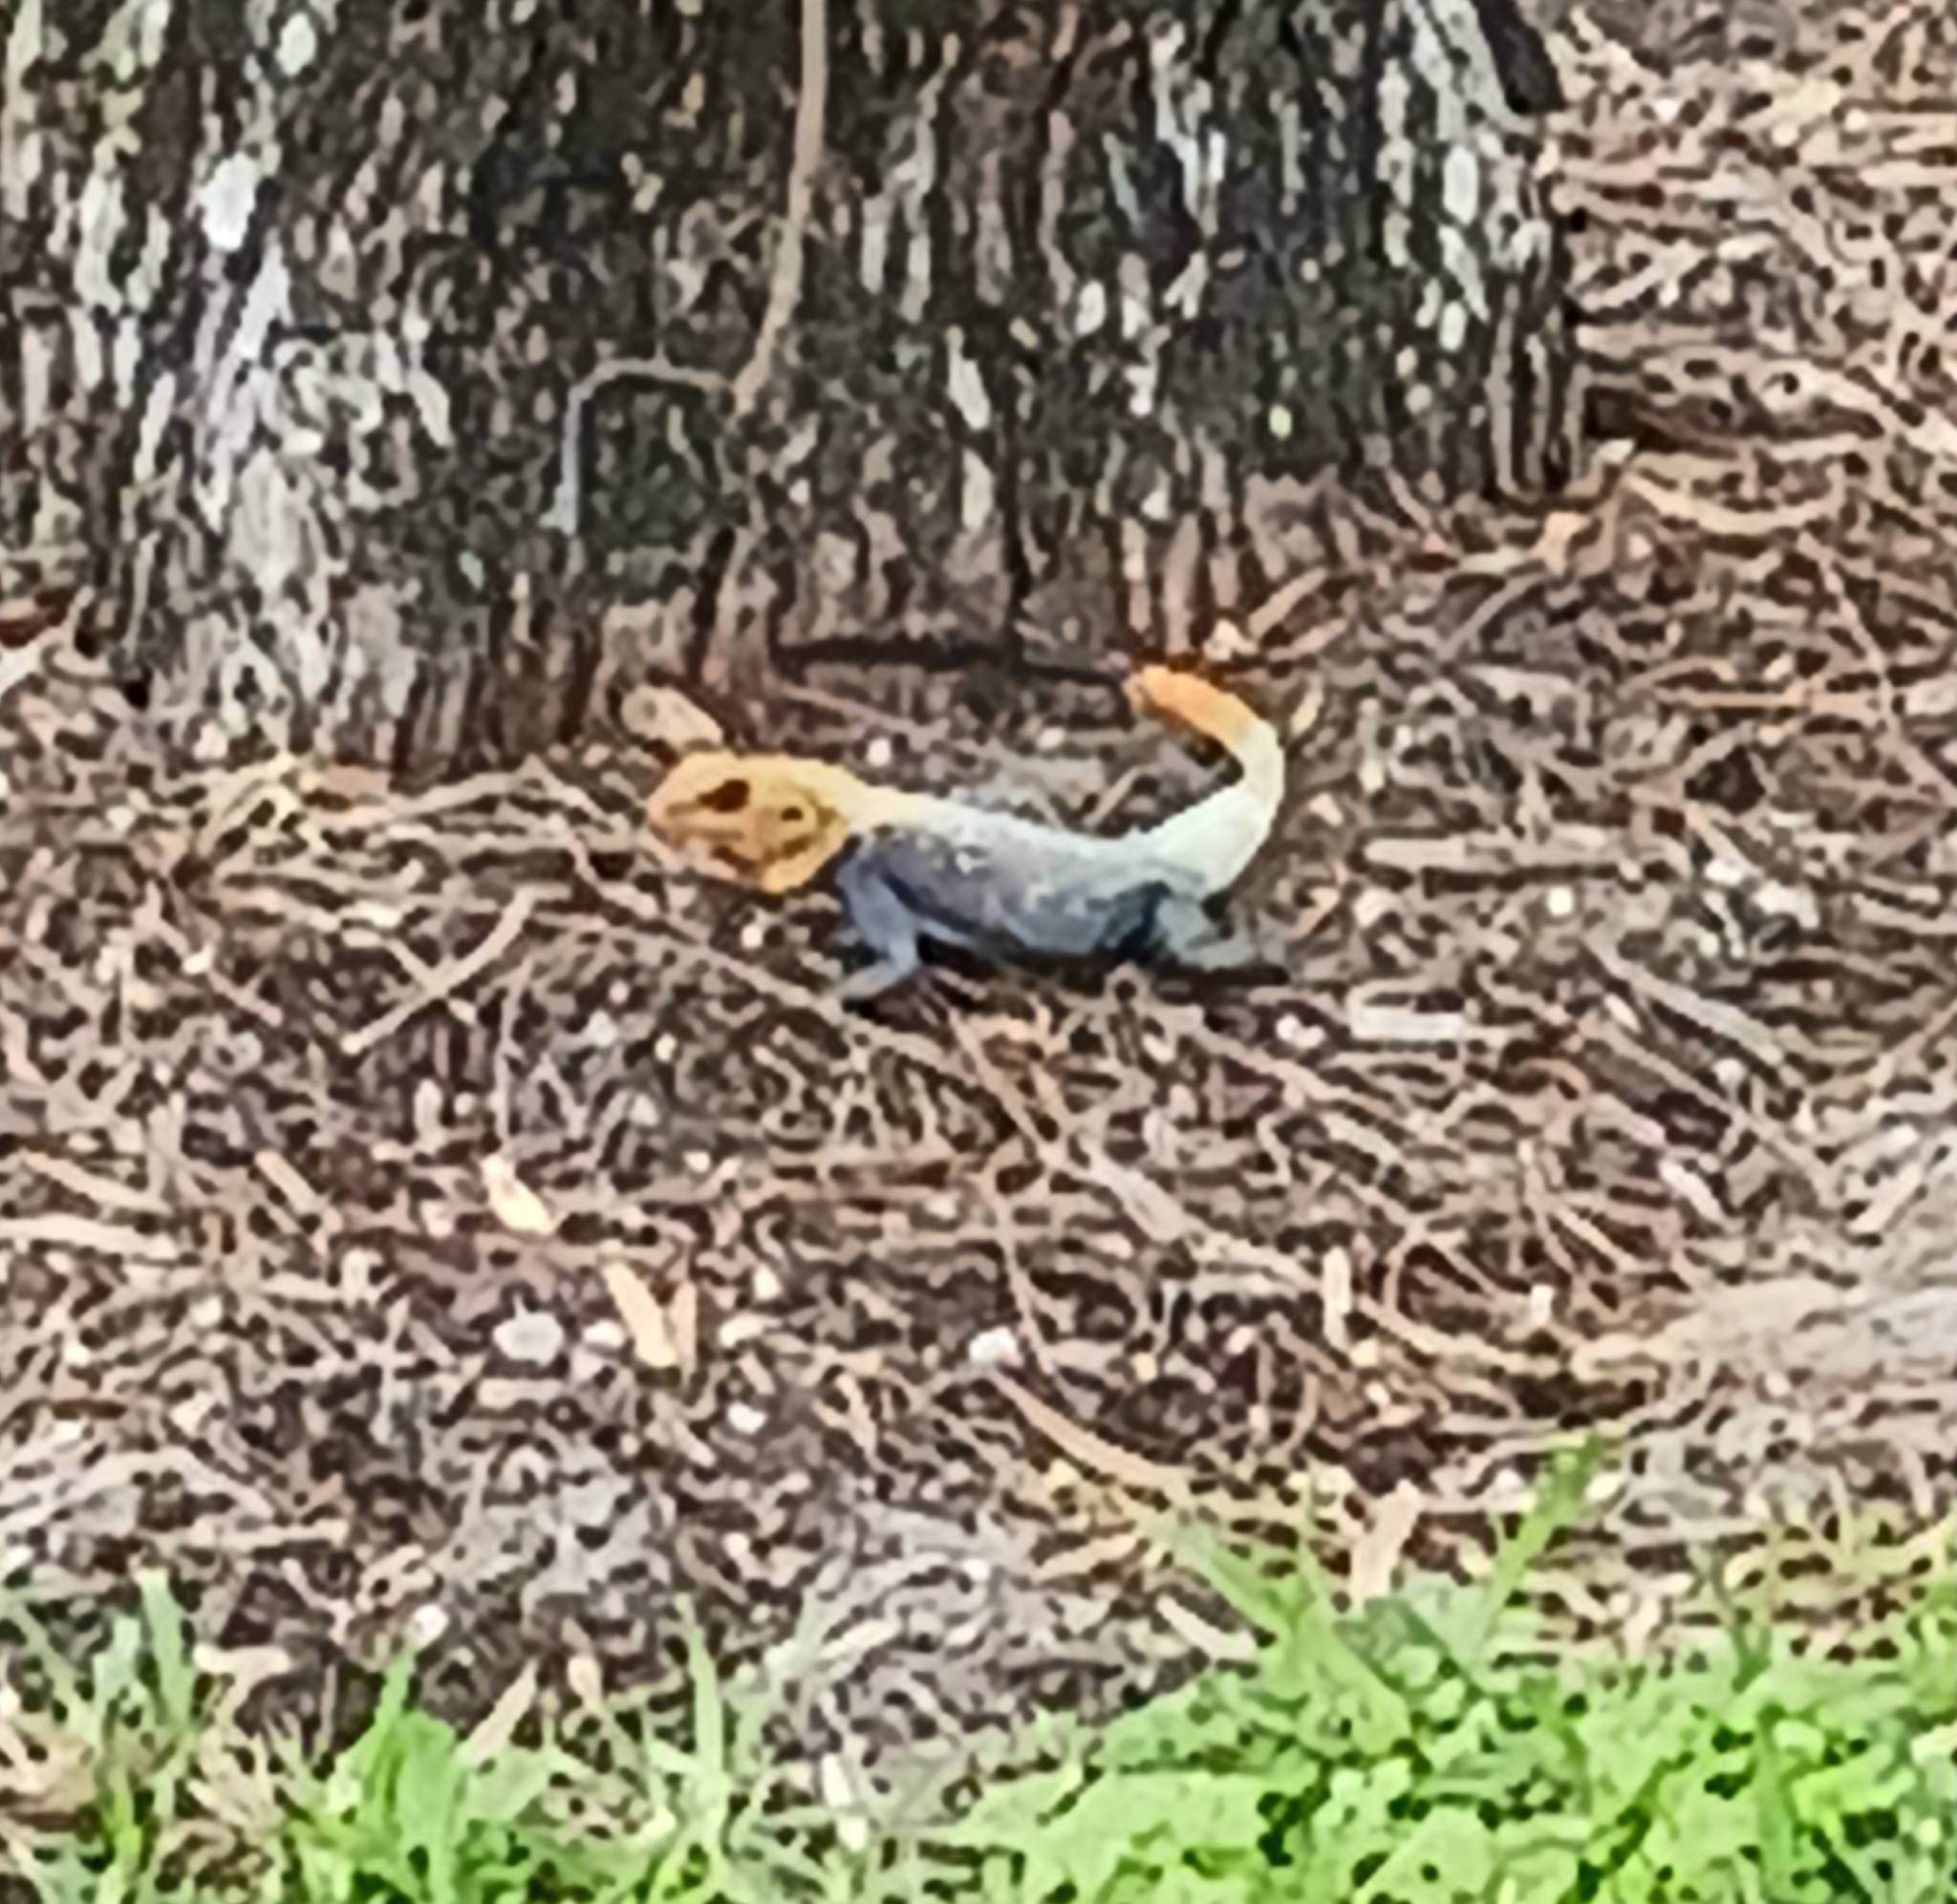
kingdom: Animalia
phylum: Chordata
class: Squamata
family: Agamidae
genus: Agama
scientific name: Agama picticauda
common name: Red-headed agama
